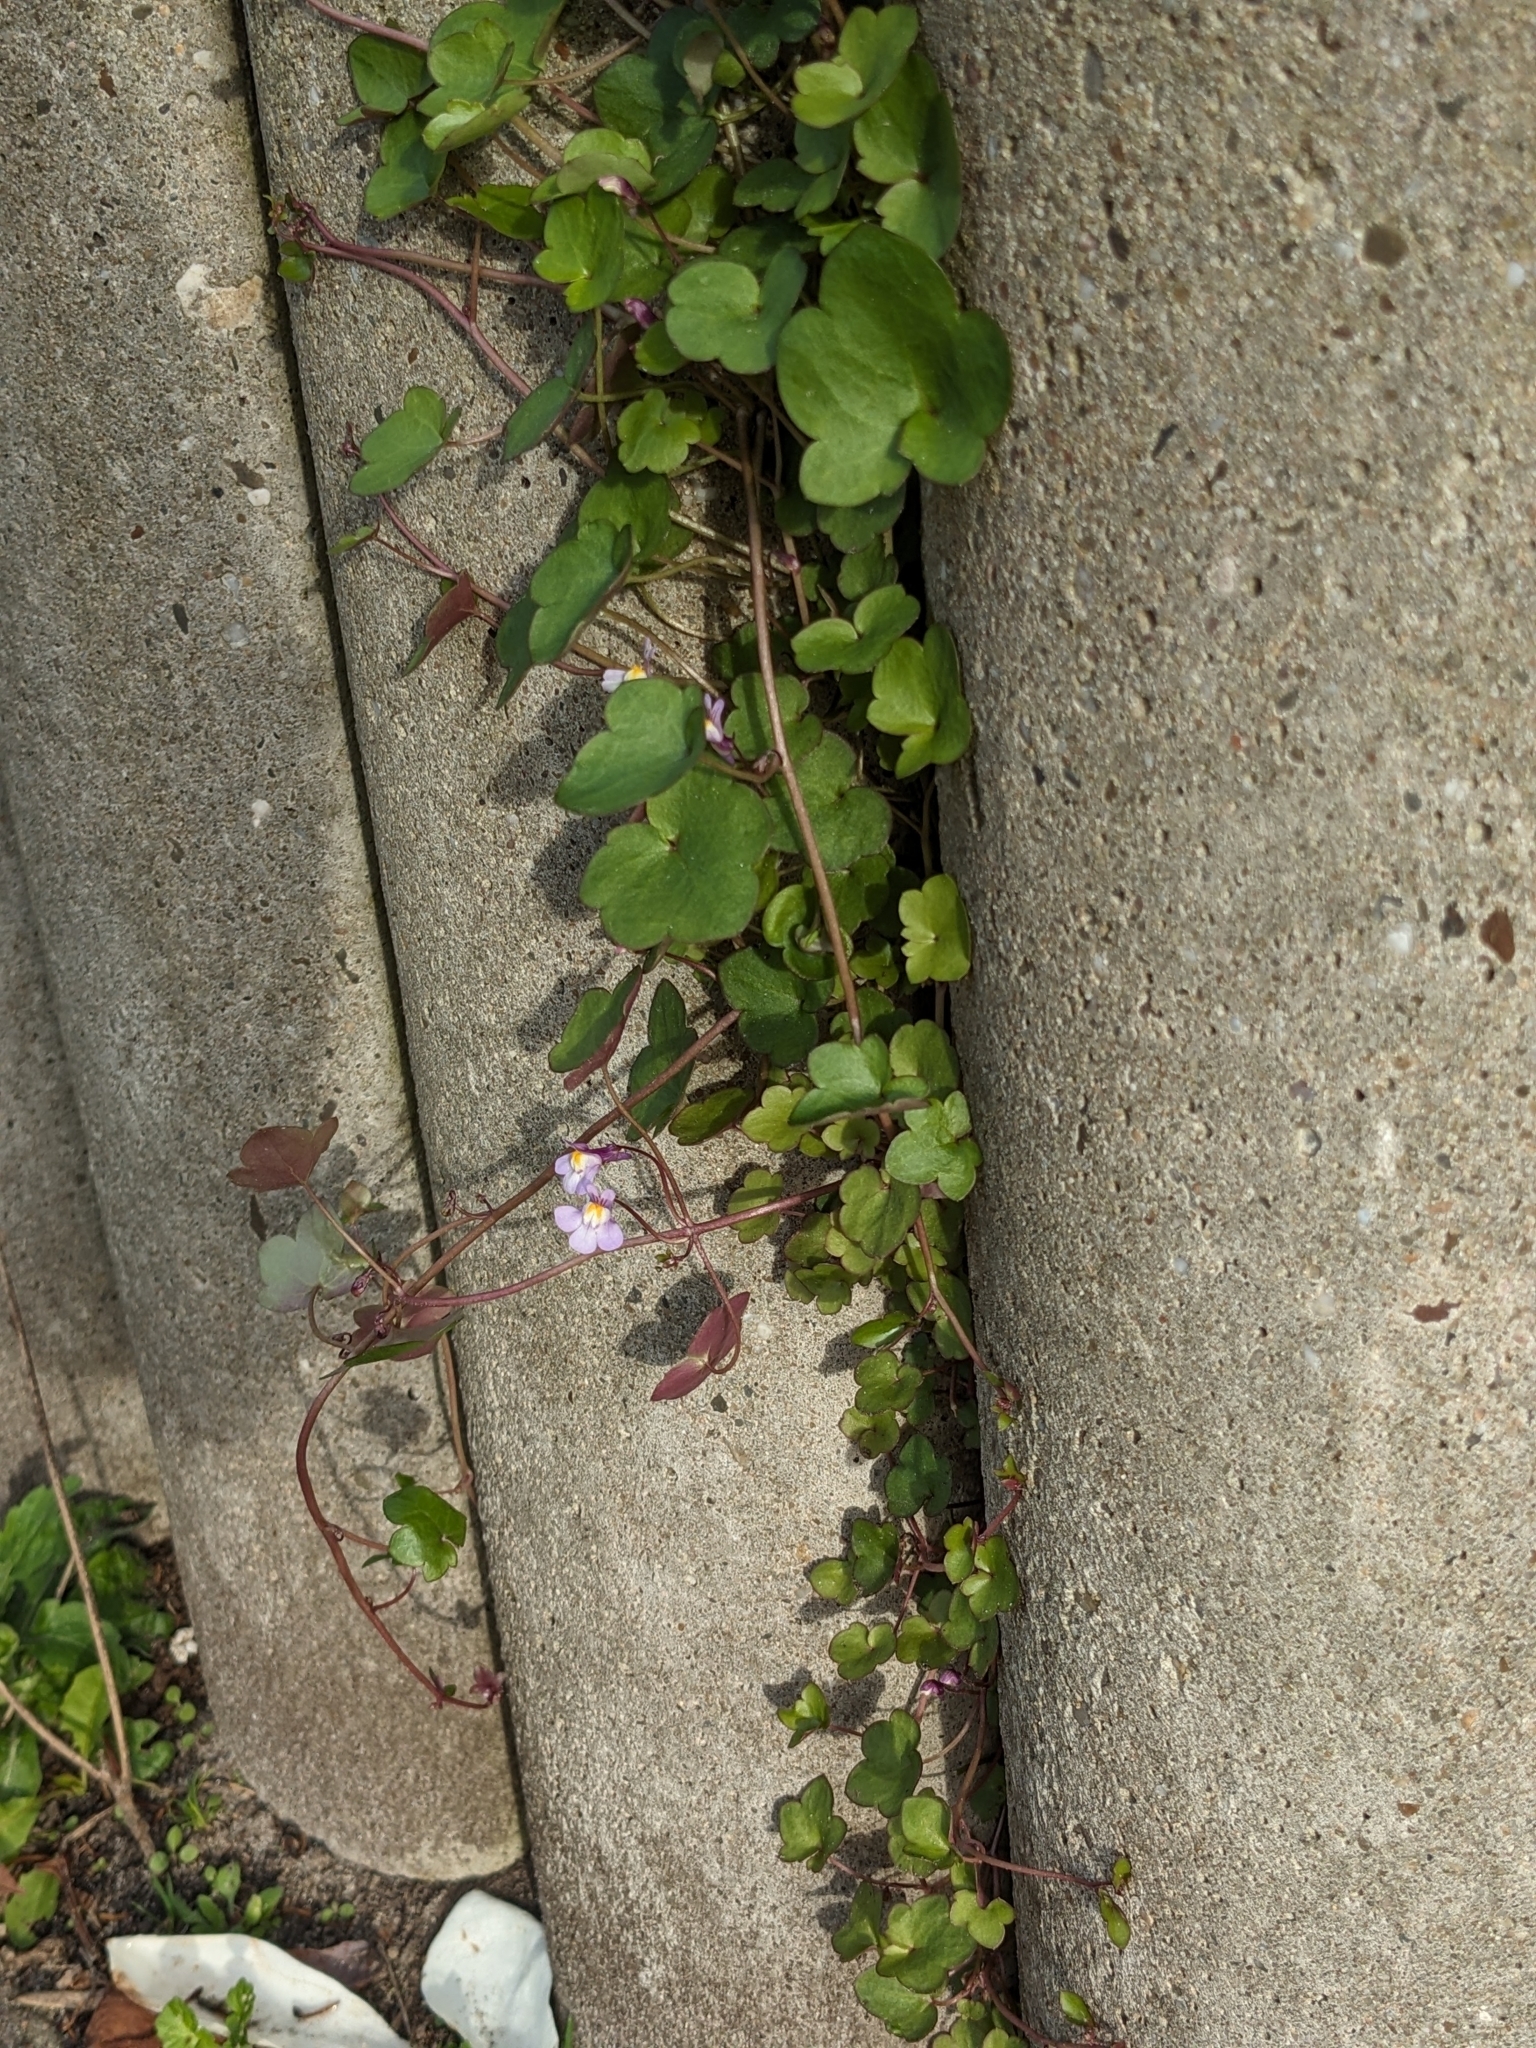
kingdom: Plantae
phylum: Tracheophyta
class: Magnoliopsida
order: Lamiales
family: Plantaginaceae
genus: Cymbalaria
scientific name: Cymbalaria muralis
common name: Ivy-leaved toadflax
